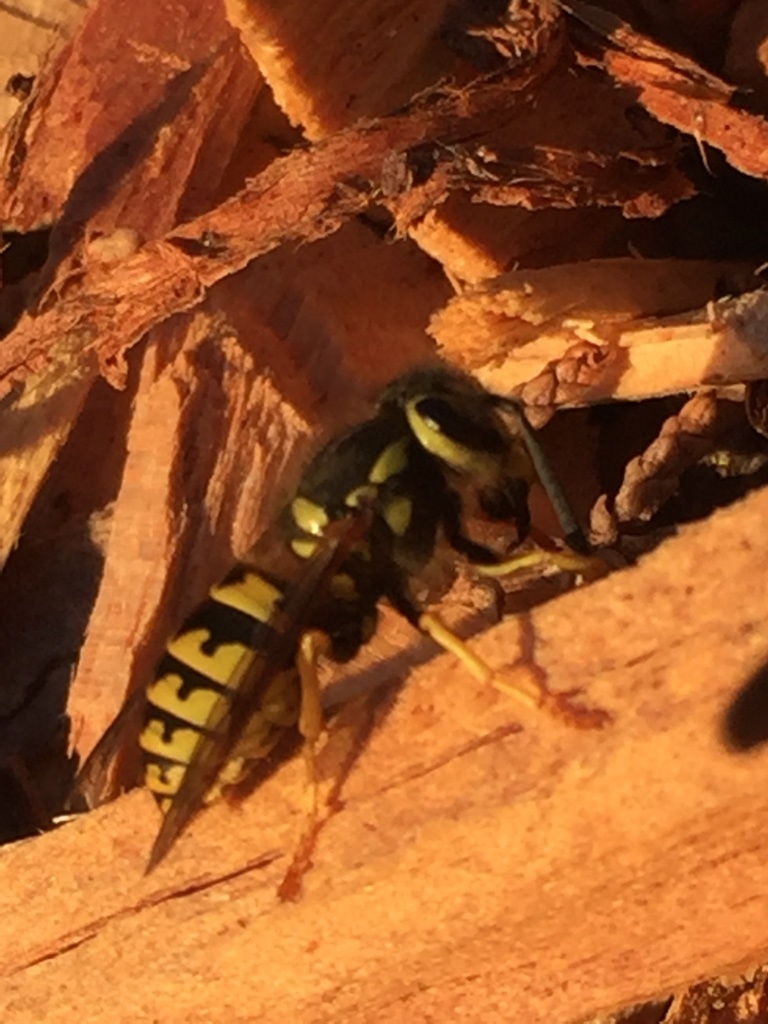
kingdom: Animalia
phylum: Arthropoda
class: Insecta
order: Hymenoptera
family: Vespidae
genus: Vespula
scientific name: Vespula pensylvanica
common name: Western yellowjacket
